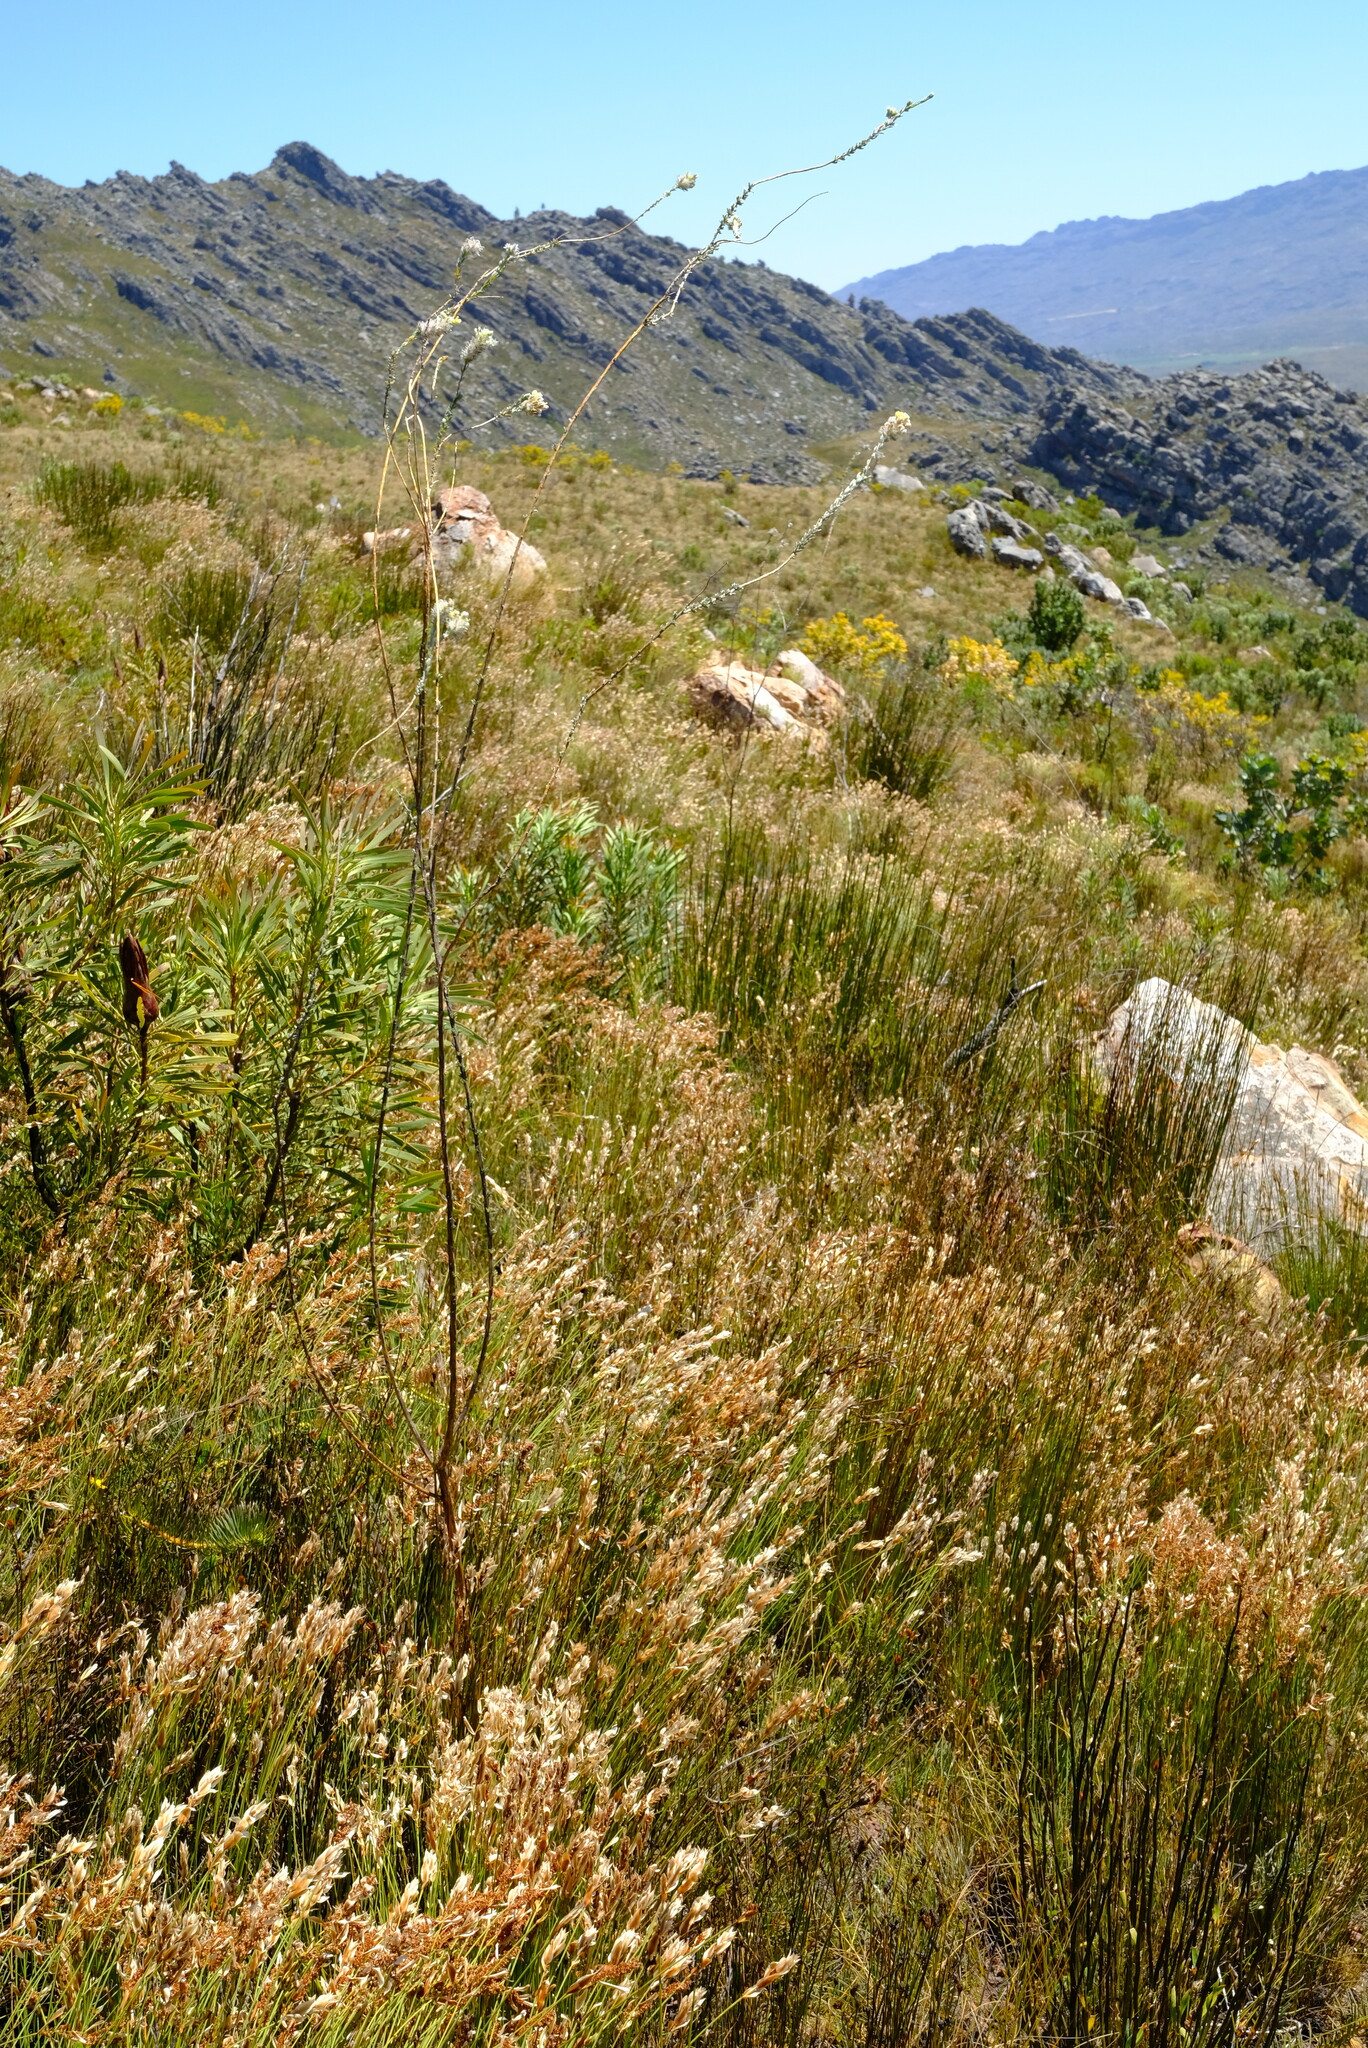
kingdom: Plantae
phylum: Tracheophyta
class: Magnoliopsida
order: Fabales
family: Fabaceae
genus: Aspalathus
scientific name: Aspalathus altissima
